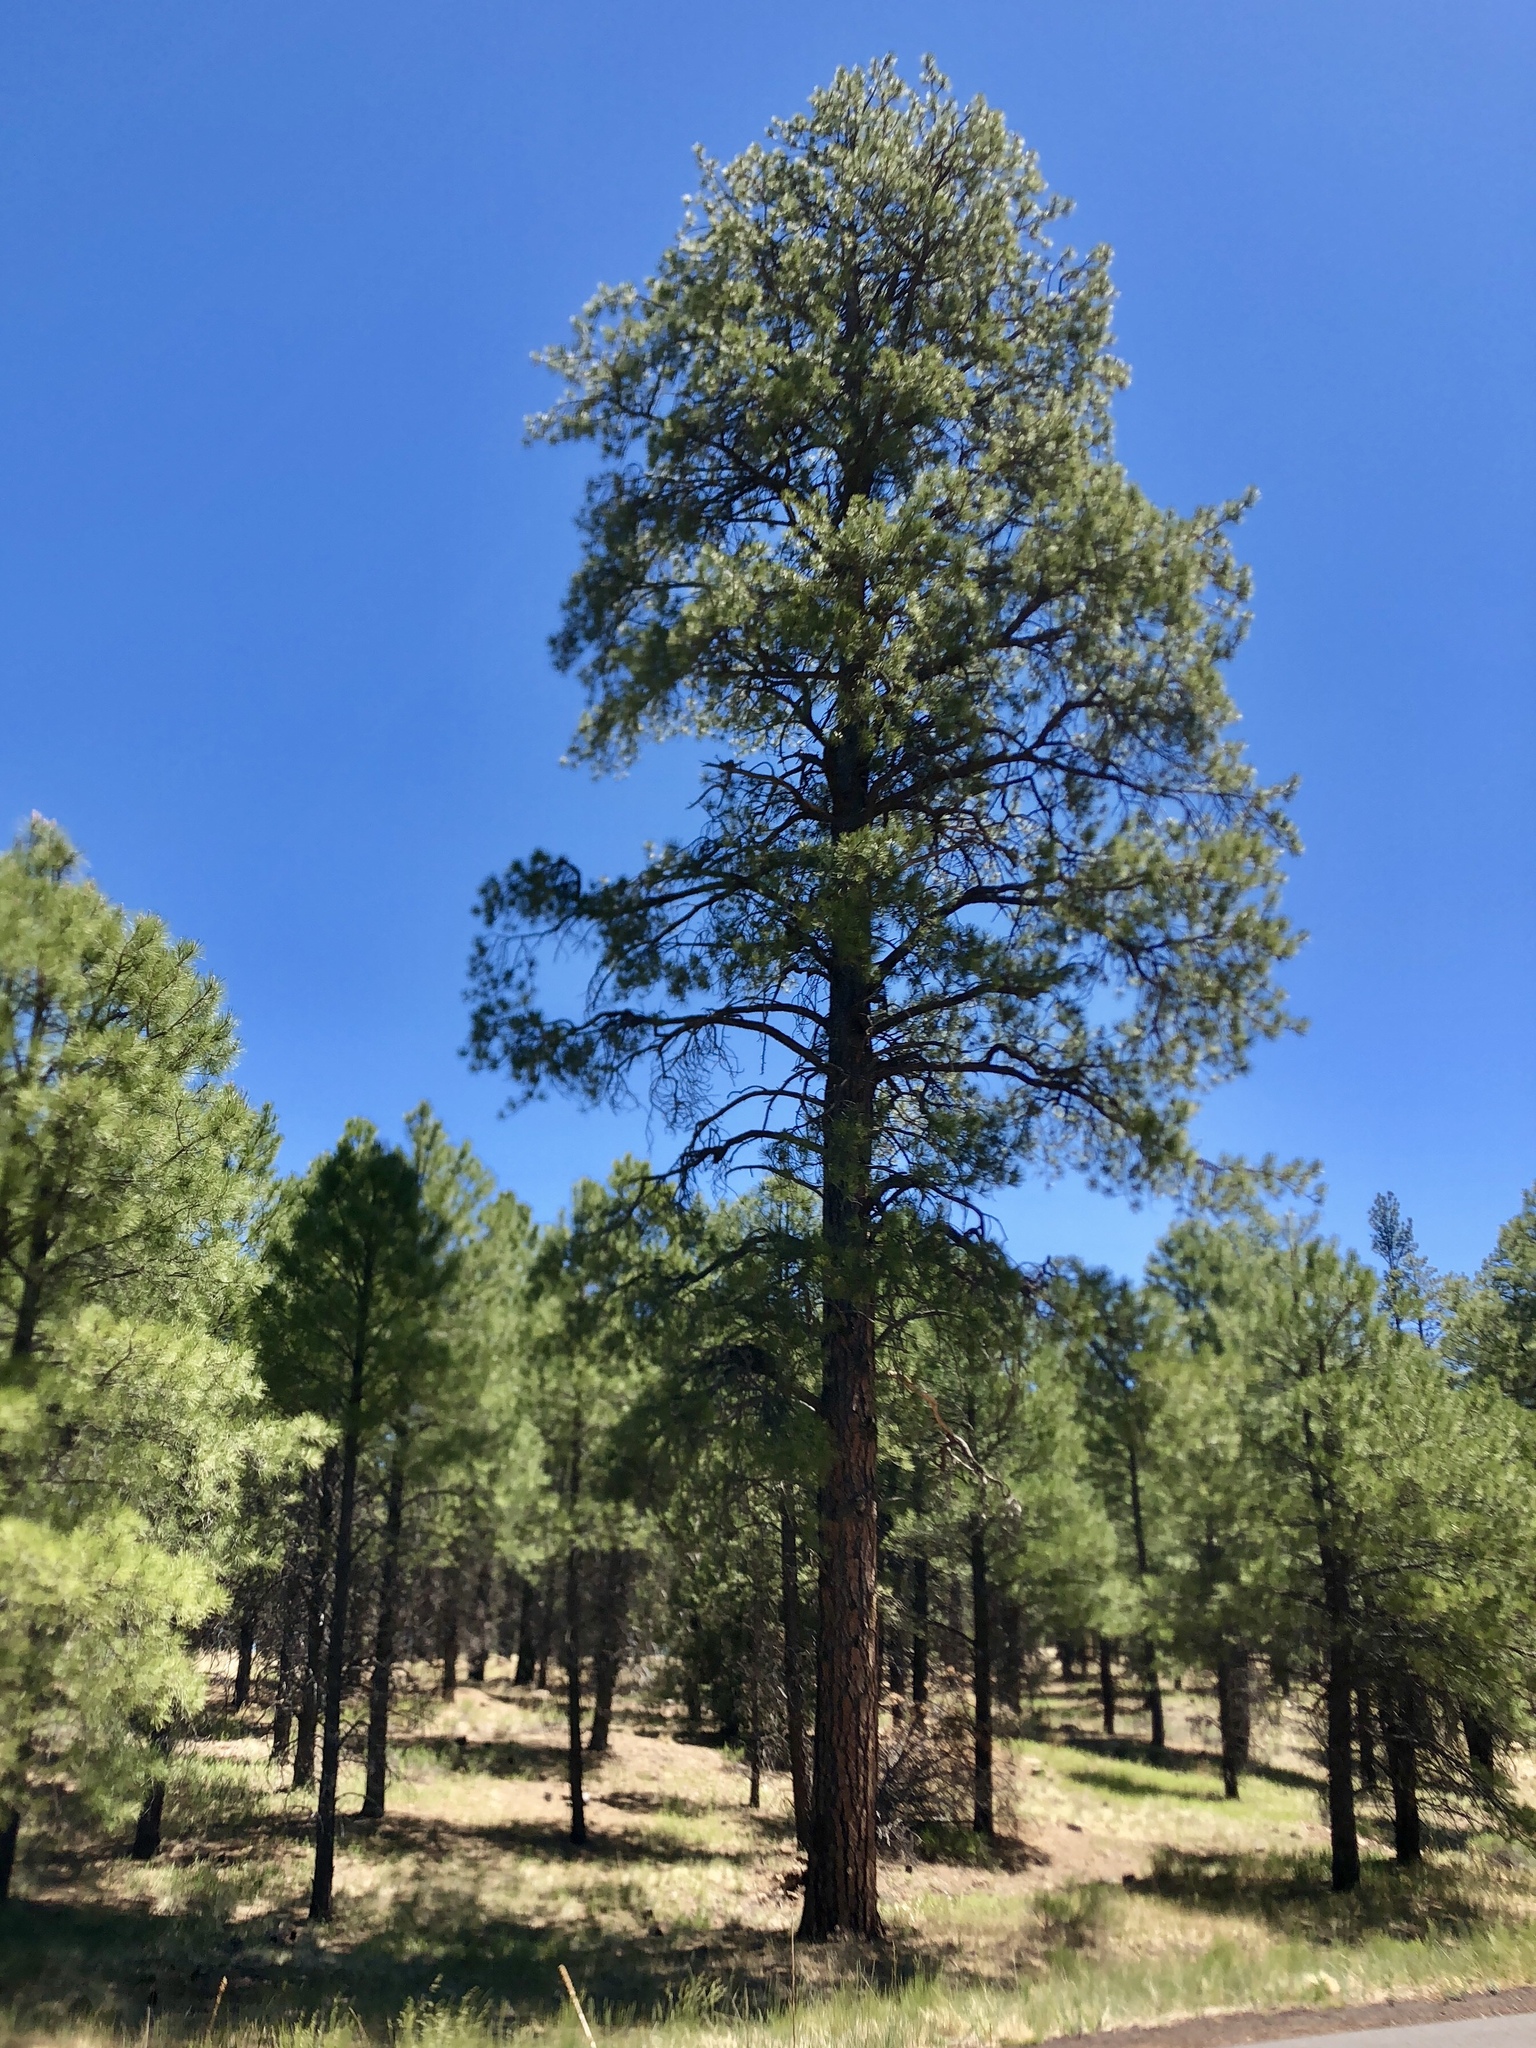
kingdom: Plantae
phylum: Tracheophyta
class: Pinopsida
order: Pinales
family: Pinaceae
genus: Pinus
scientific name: Pinus ponderosa
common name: Western yellow-pine
